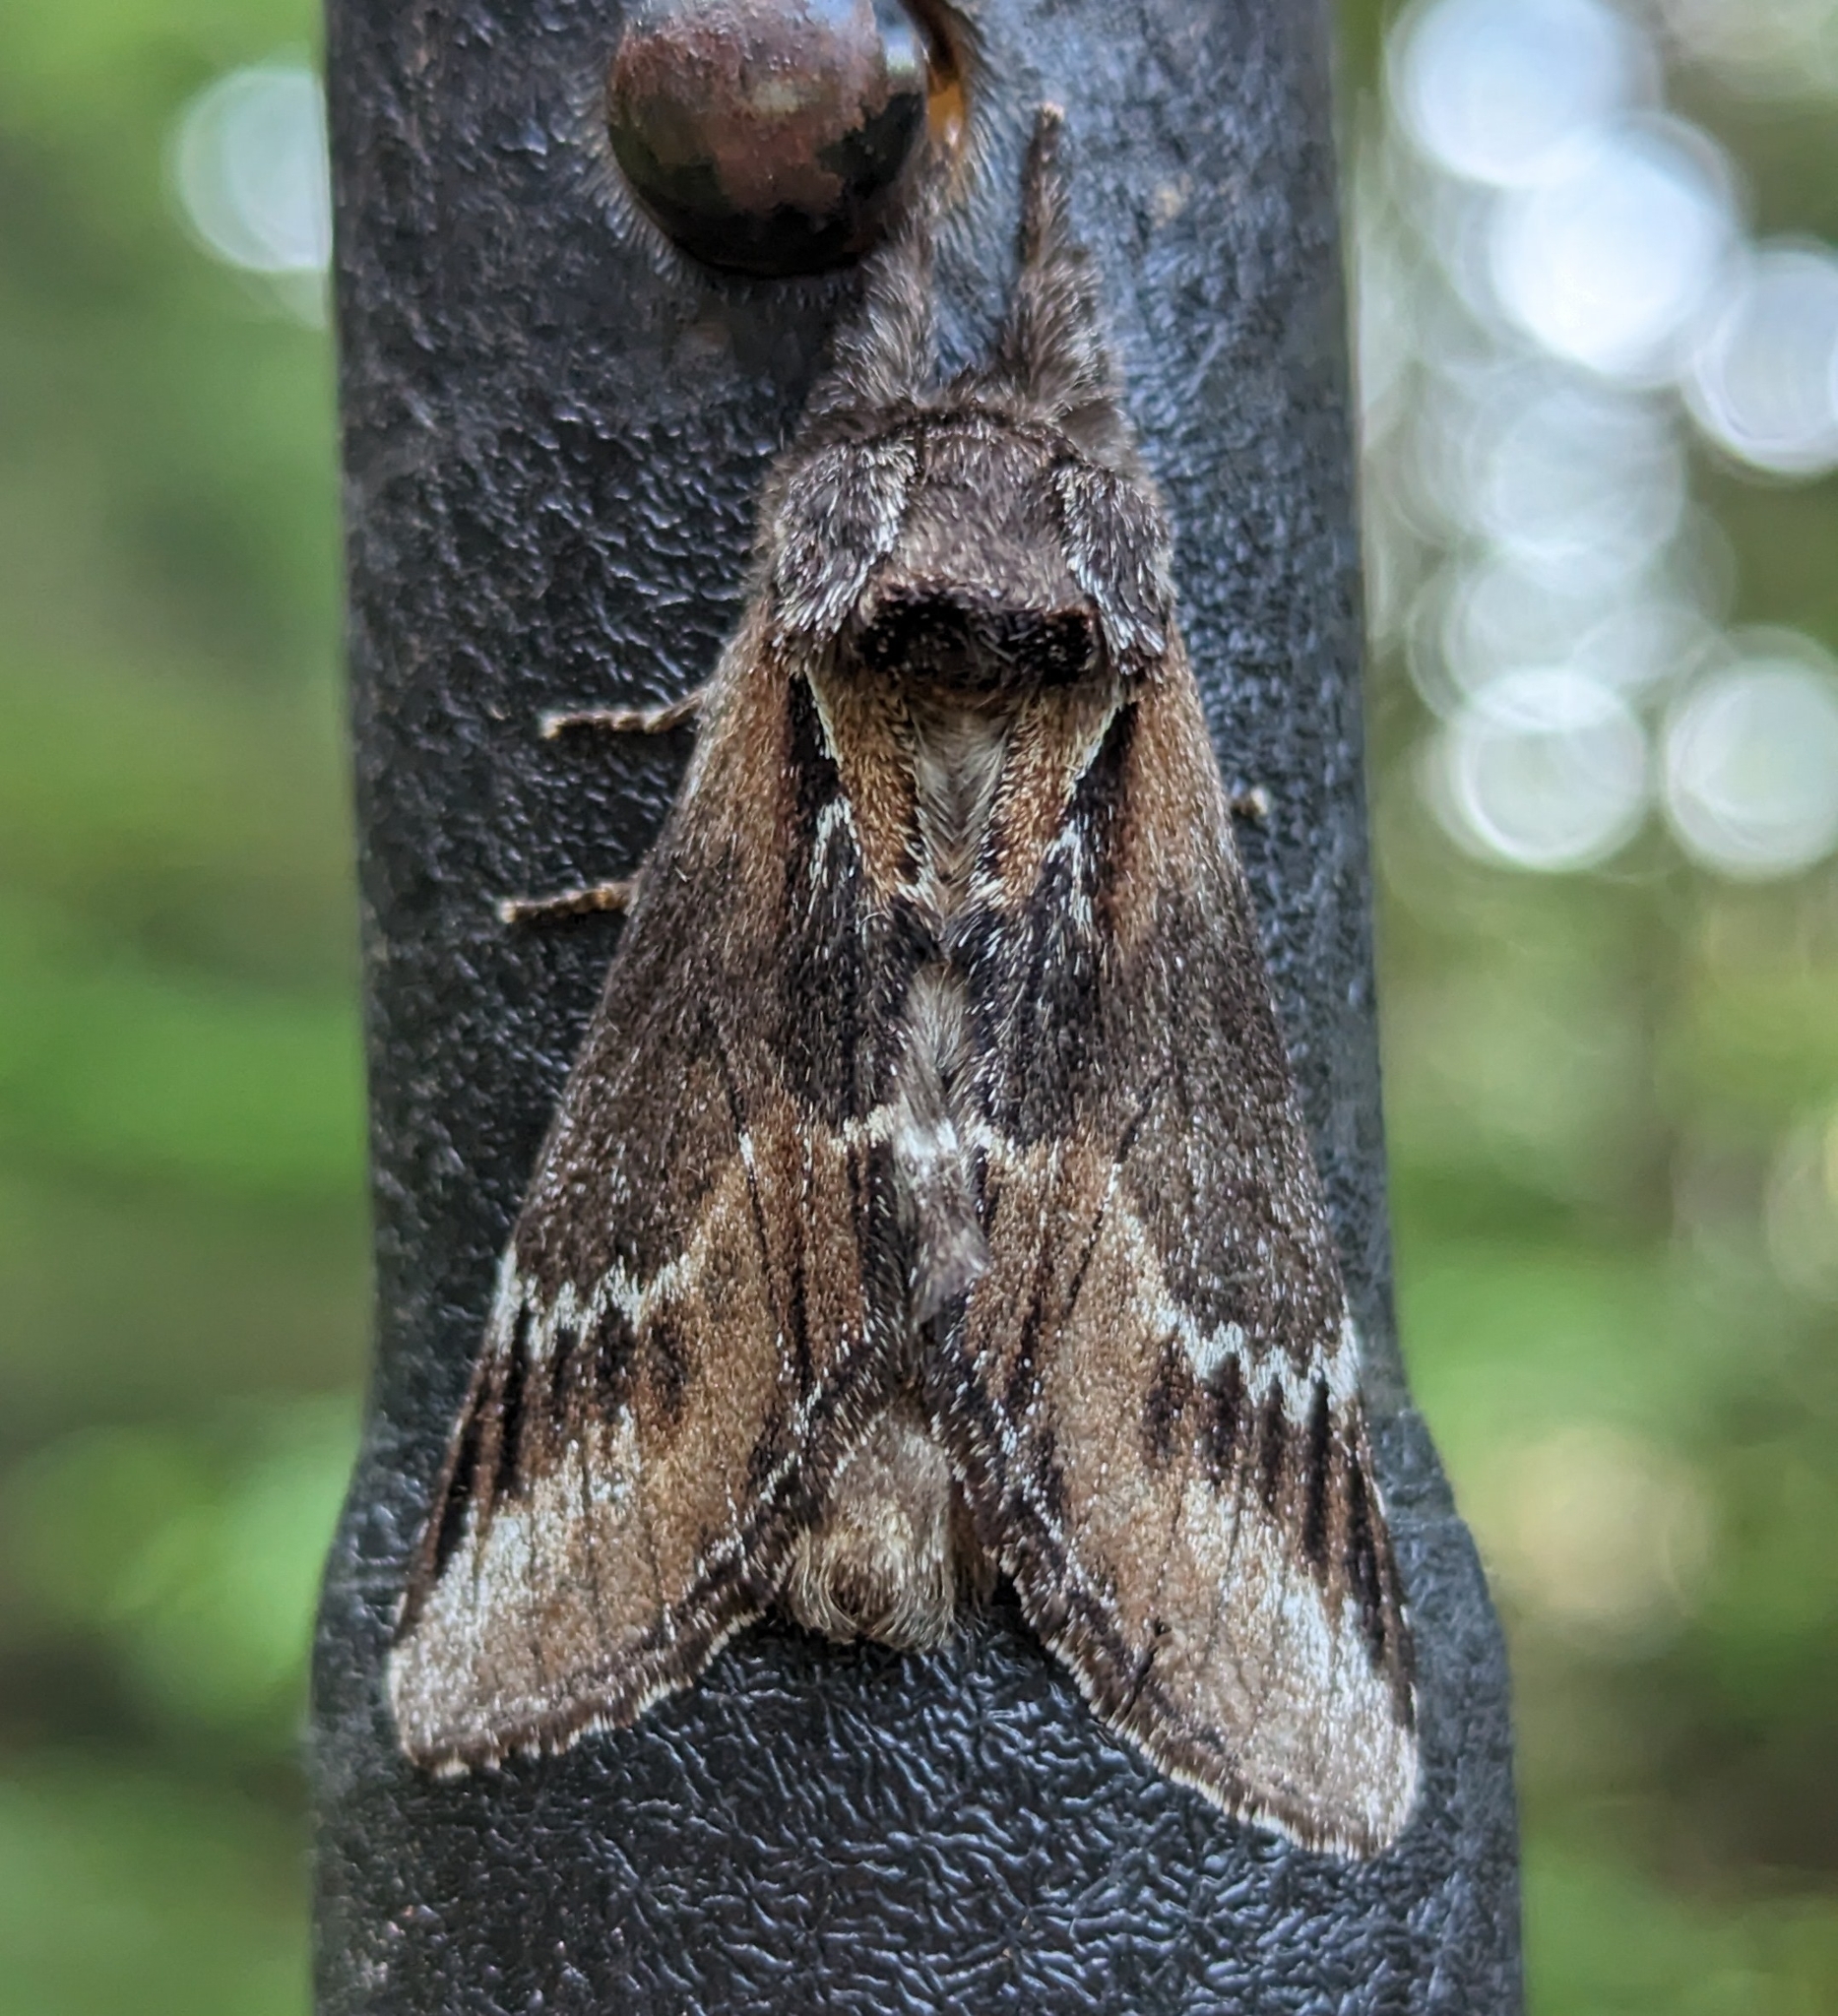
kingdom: Animalia
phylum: Arthropoda
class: Insecta
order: Lepidoptera
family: Notodontidae
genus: Pheosia
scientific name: Pheosia rimosa
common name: Black-rimmed prominent
